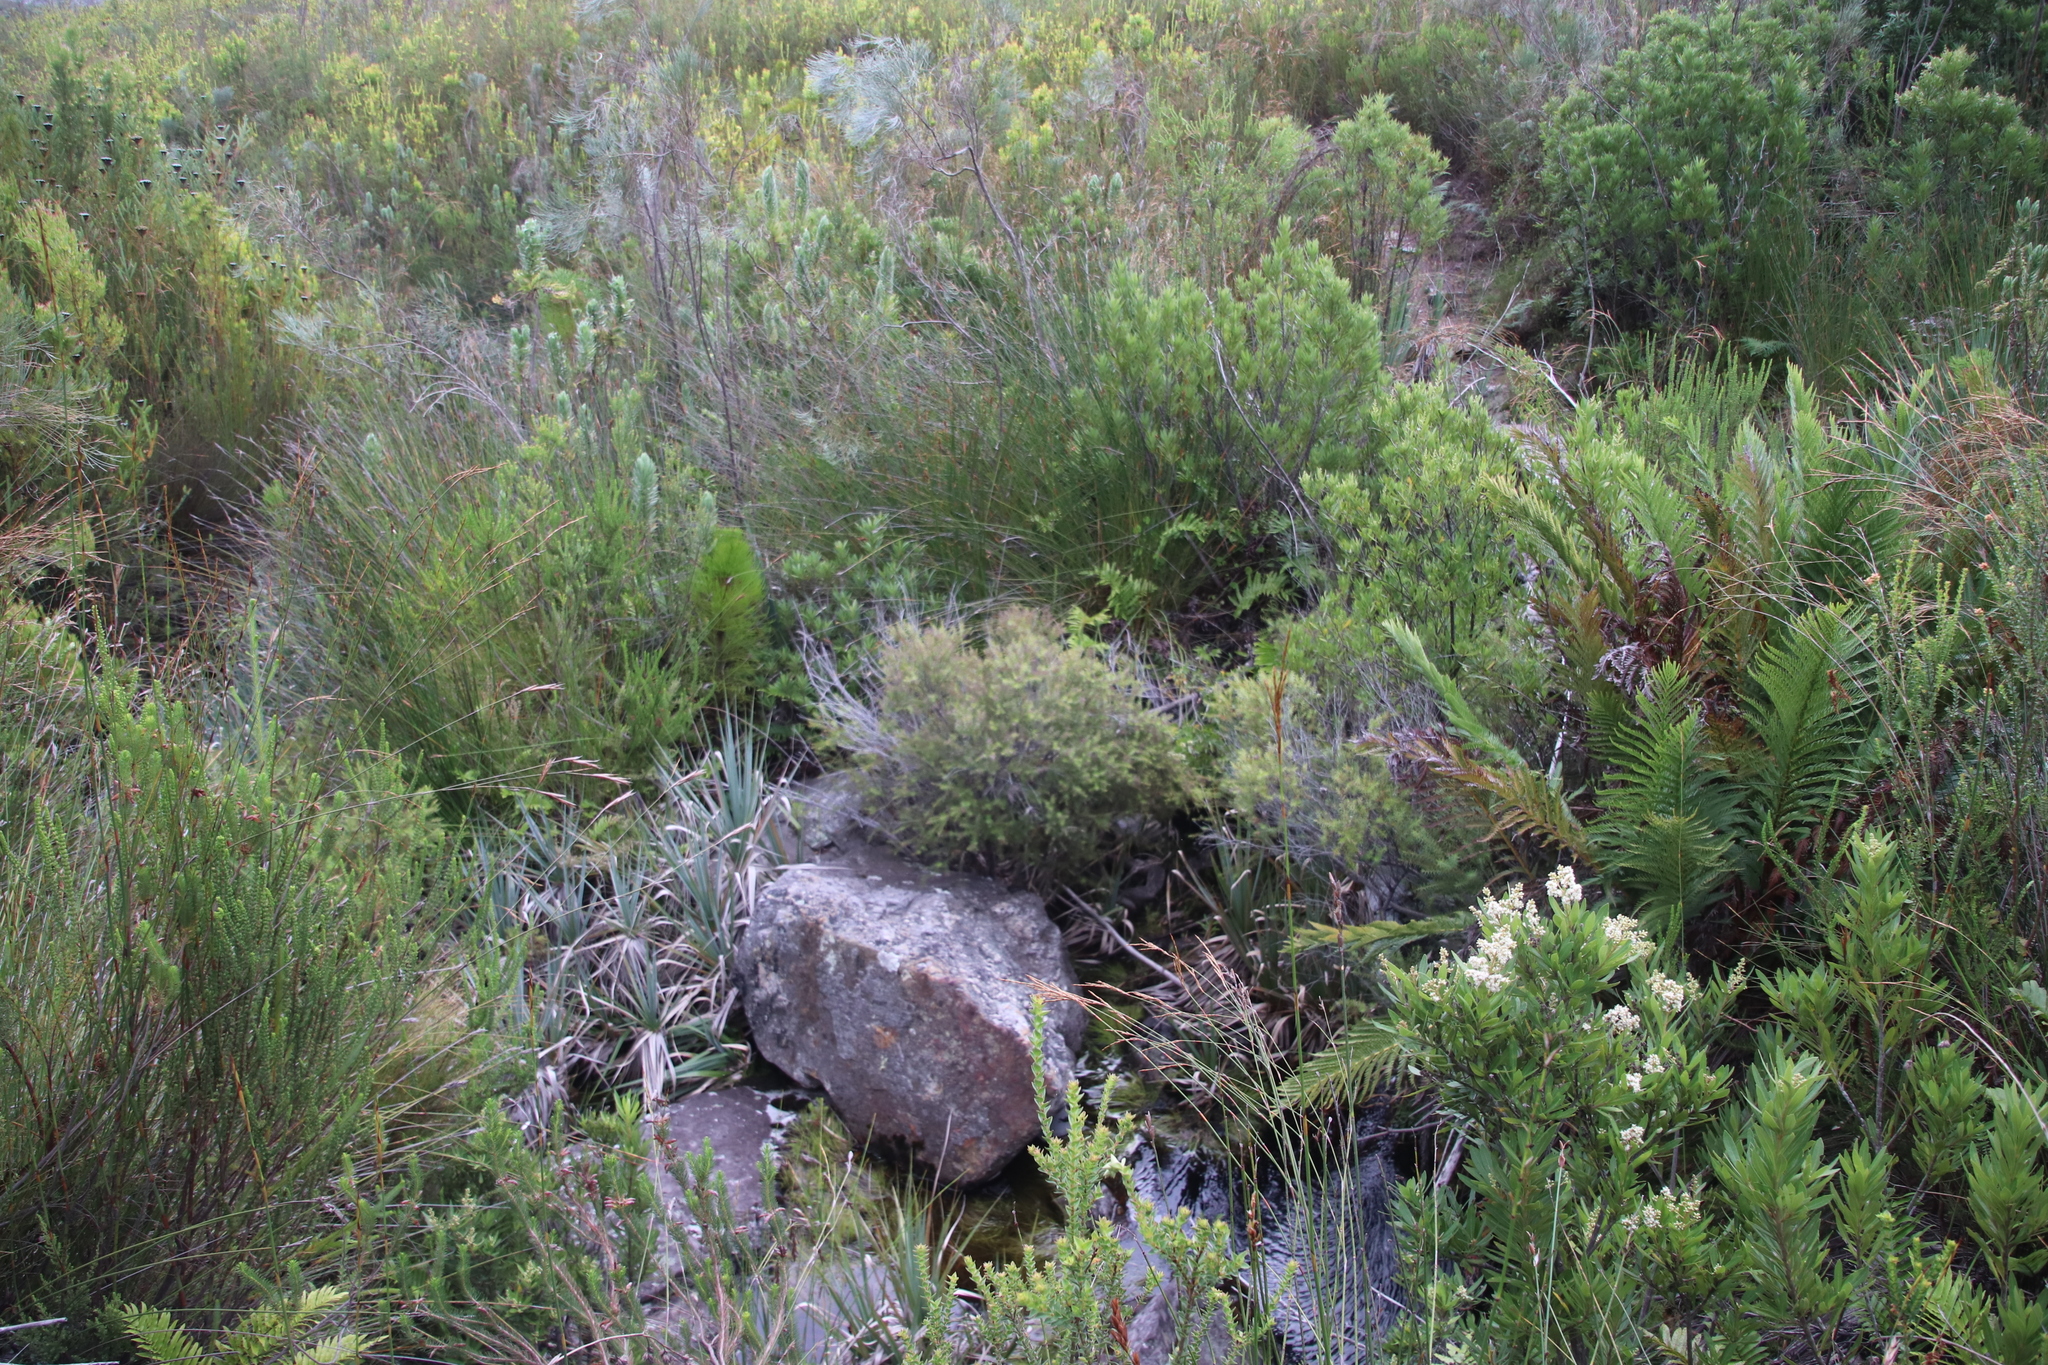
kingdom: Plantae
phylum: Tracheophyta
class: Magnoliopsida
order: Bruniales
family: Bruniaceae
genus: Brunia
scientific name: Brunia africana
